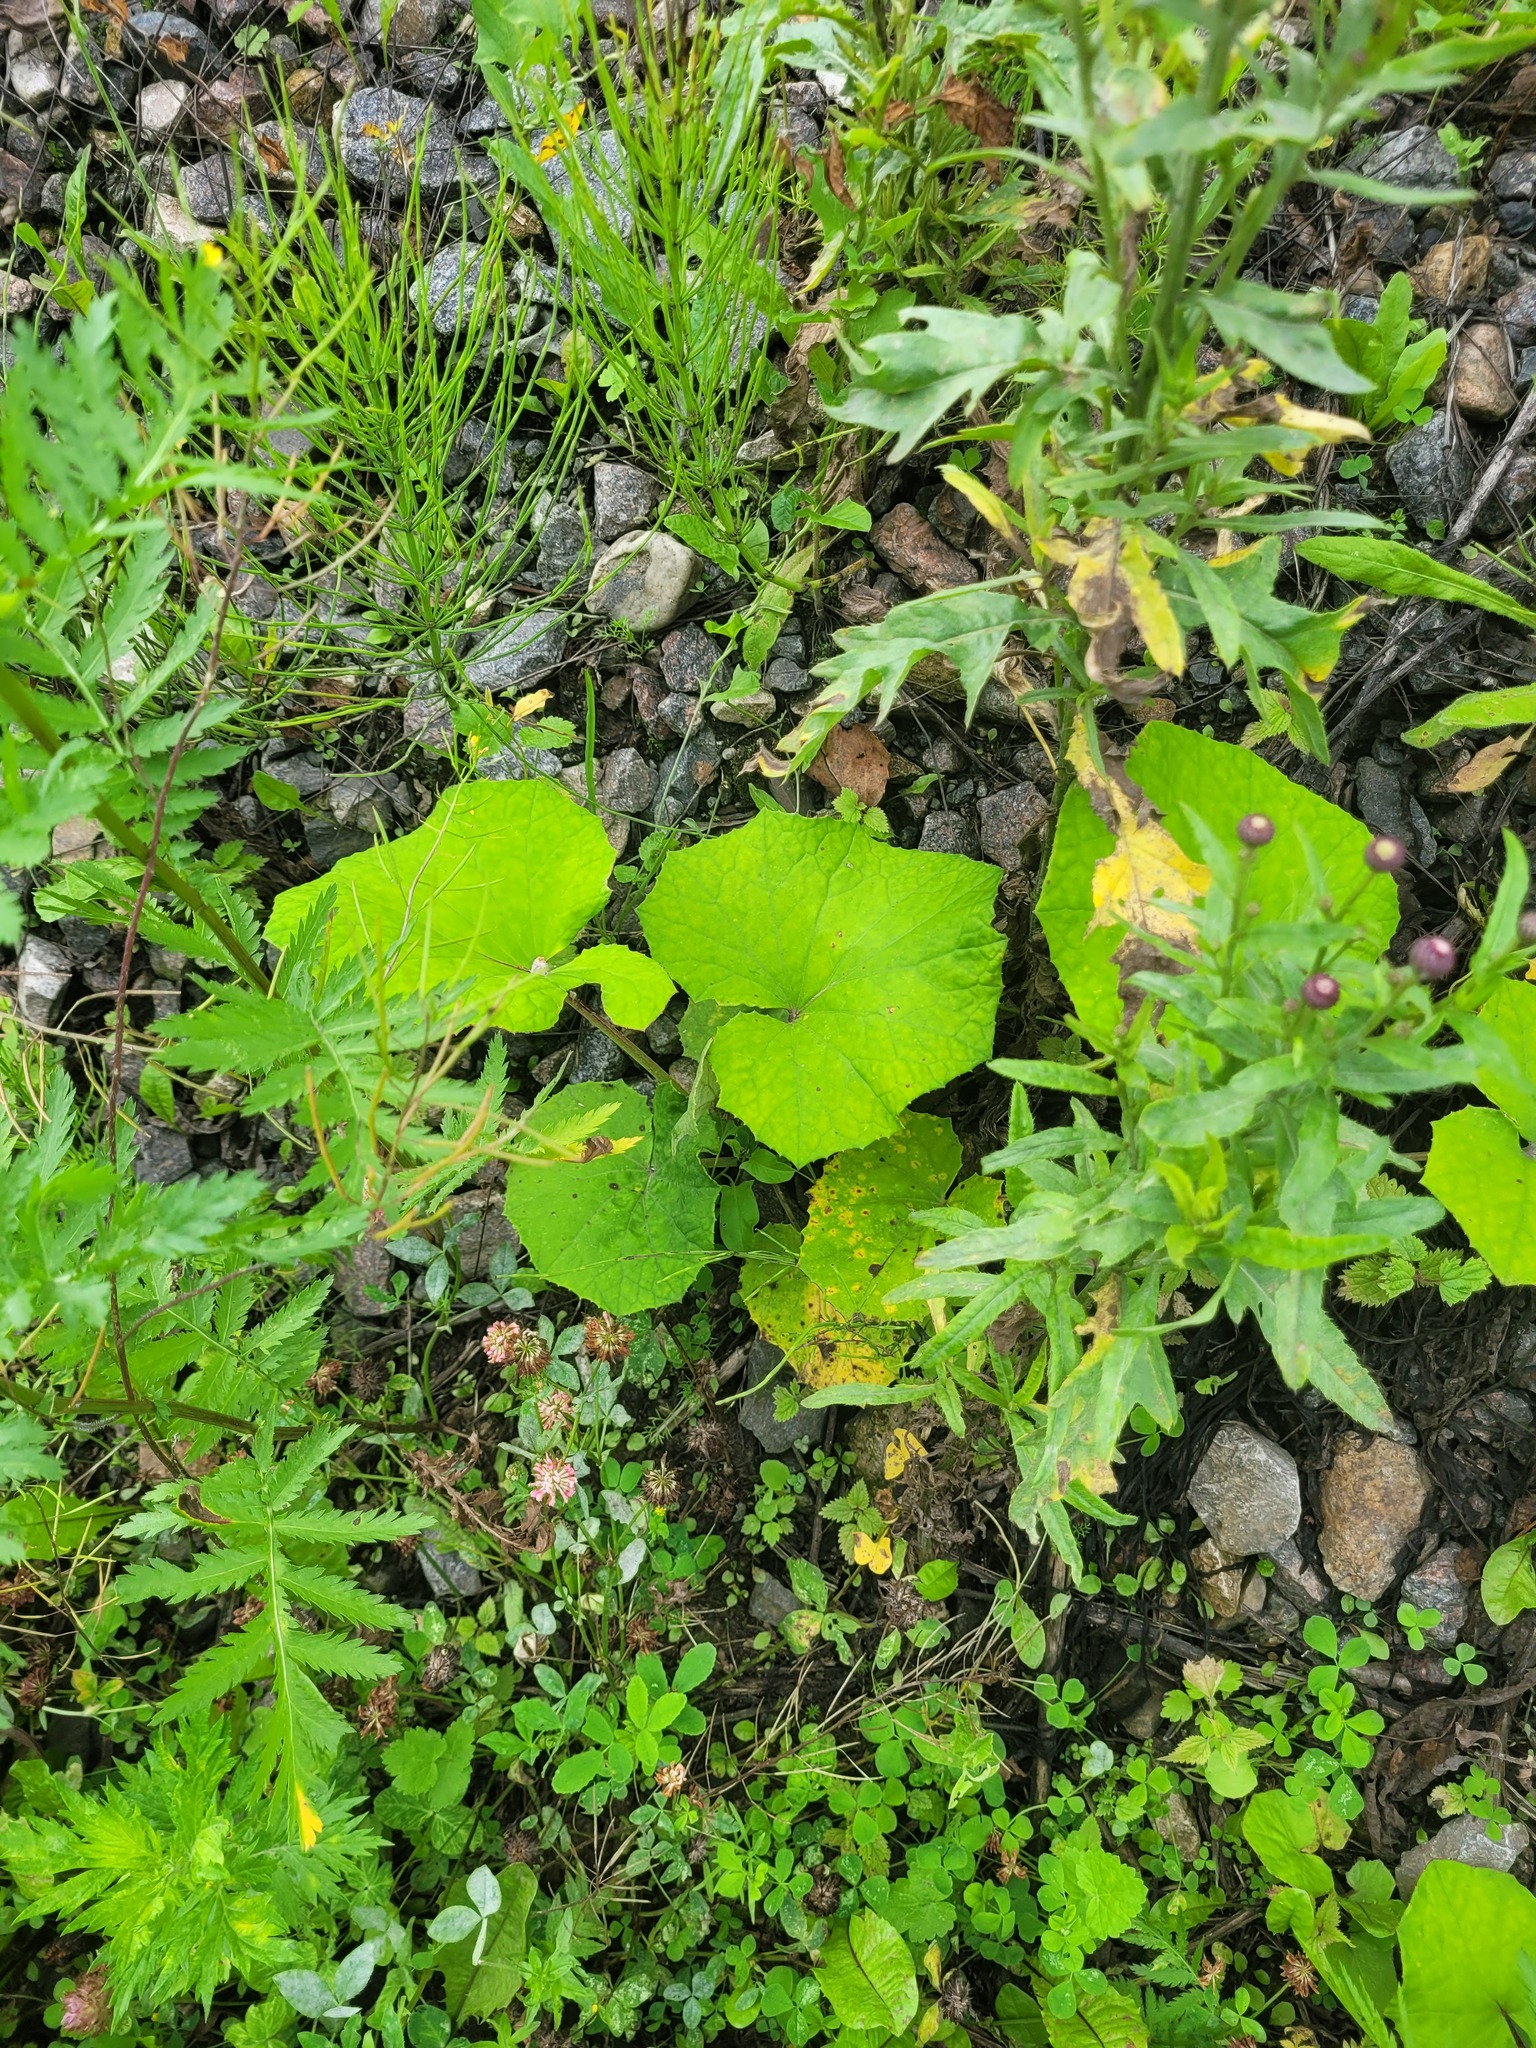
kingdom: Plantae
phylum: Tracheophyta
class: Magnoliopsida
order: Asterales
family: Asteraceae
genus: Tussilago
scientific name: Tussilago farfara
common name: Coltsfoot
